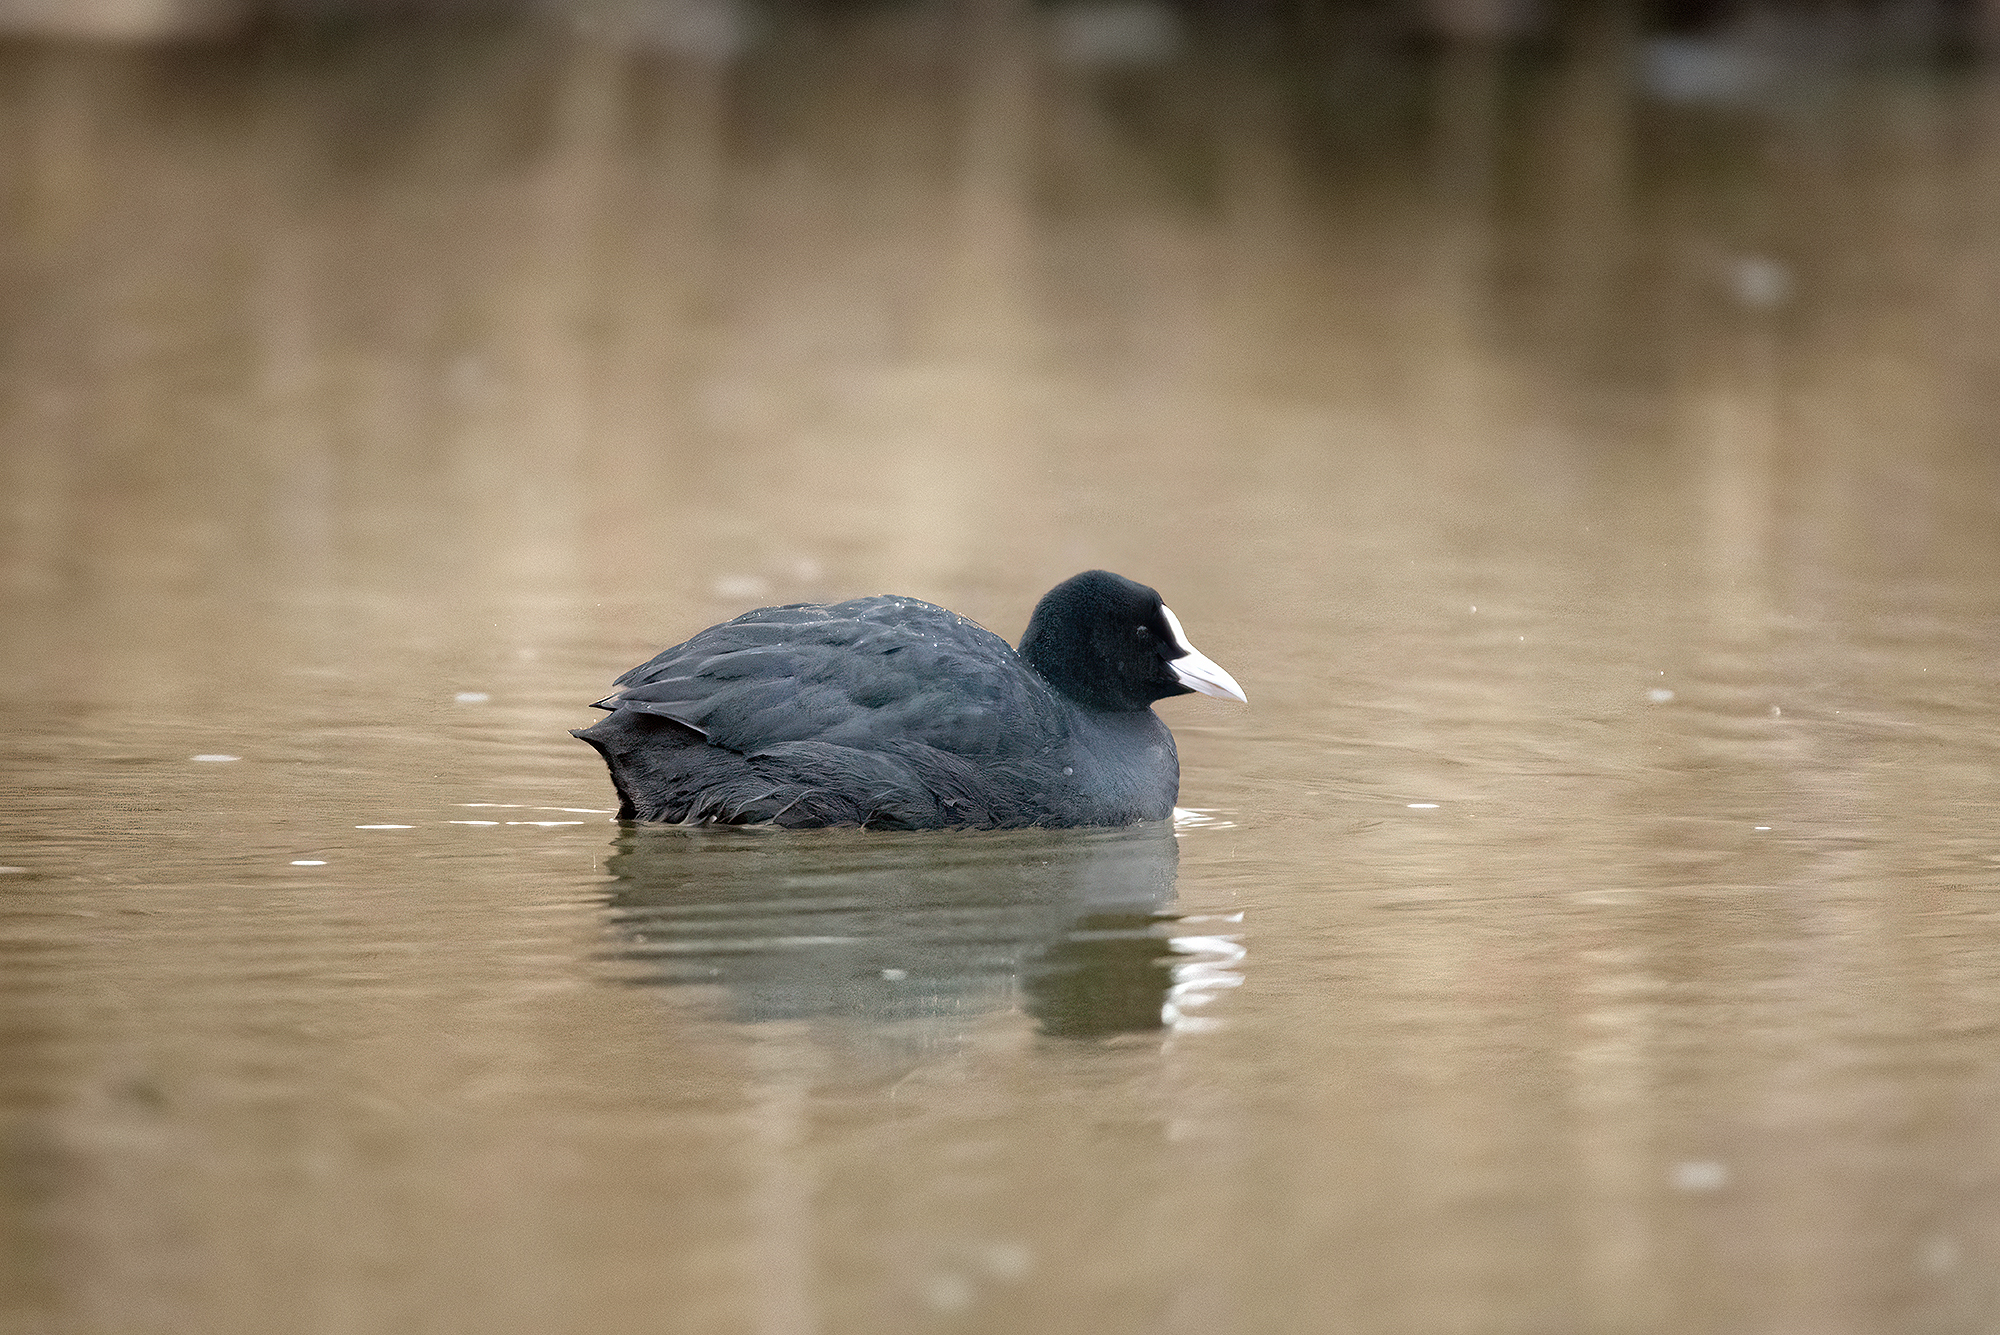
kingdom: Animalia
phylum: Chordata
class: Aves
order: Gruiformes
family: Rallidae
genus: Fulica
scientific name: Fulica atra
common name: Eurasian coot
